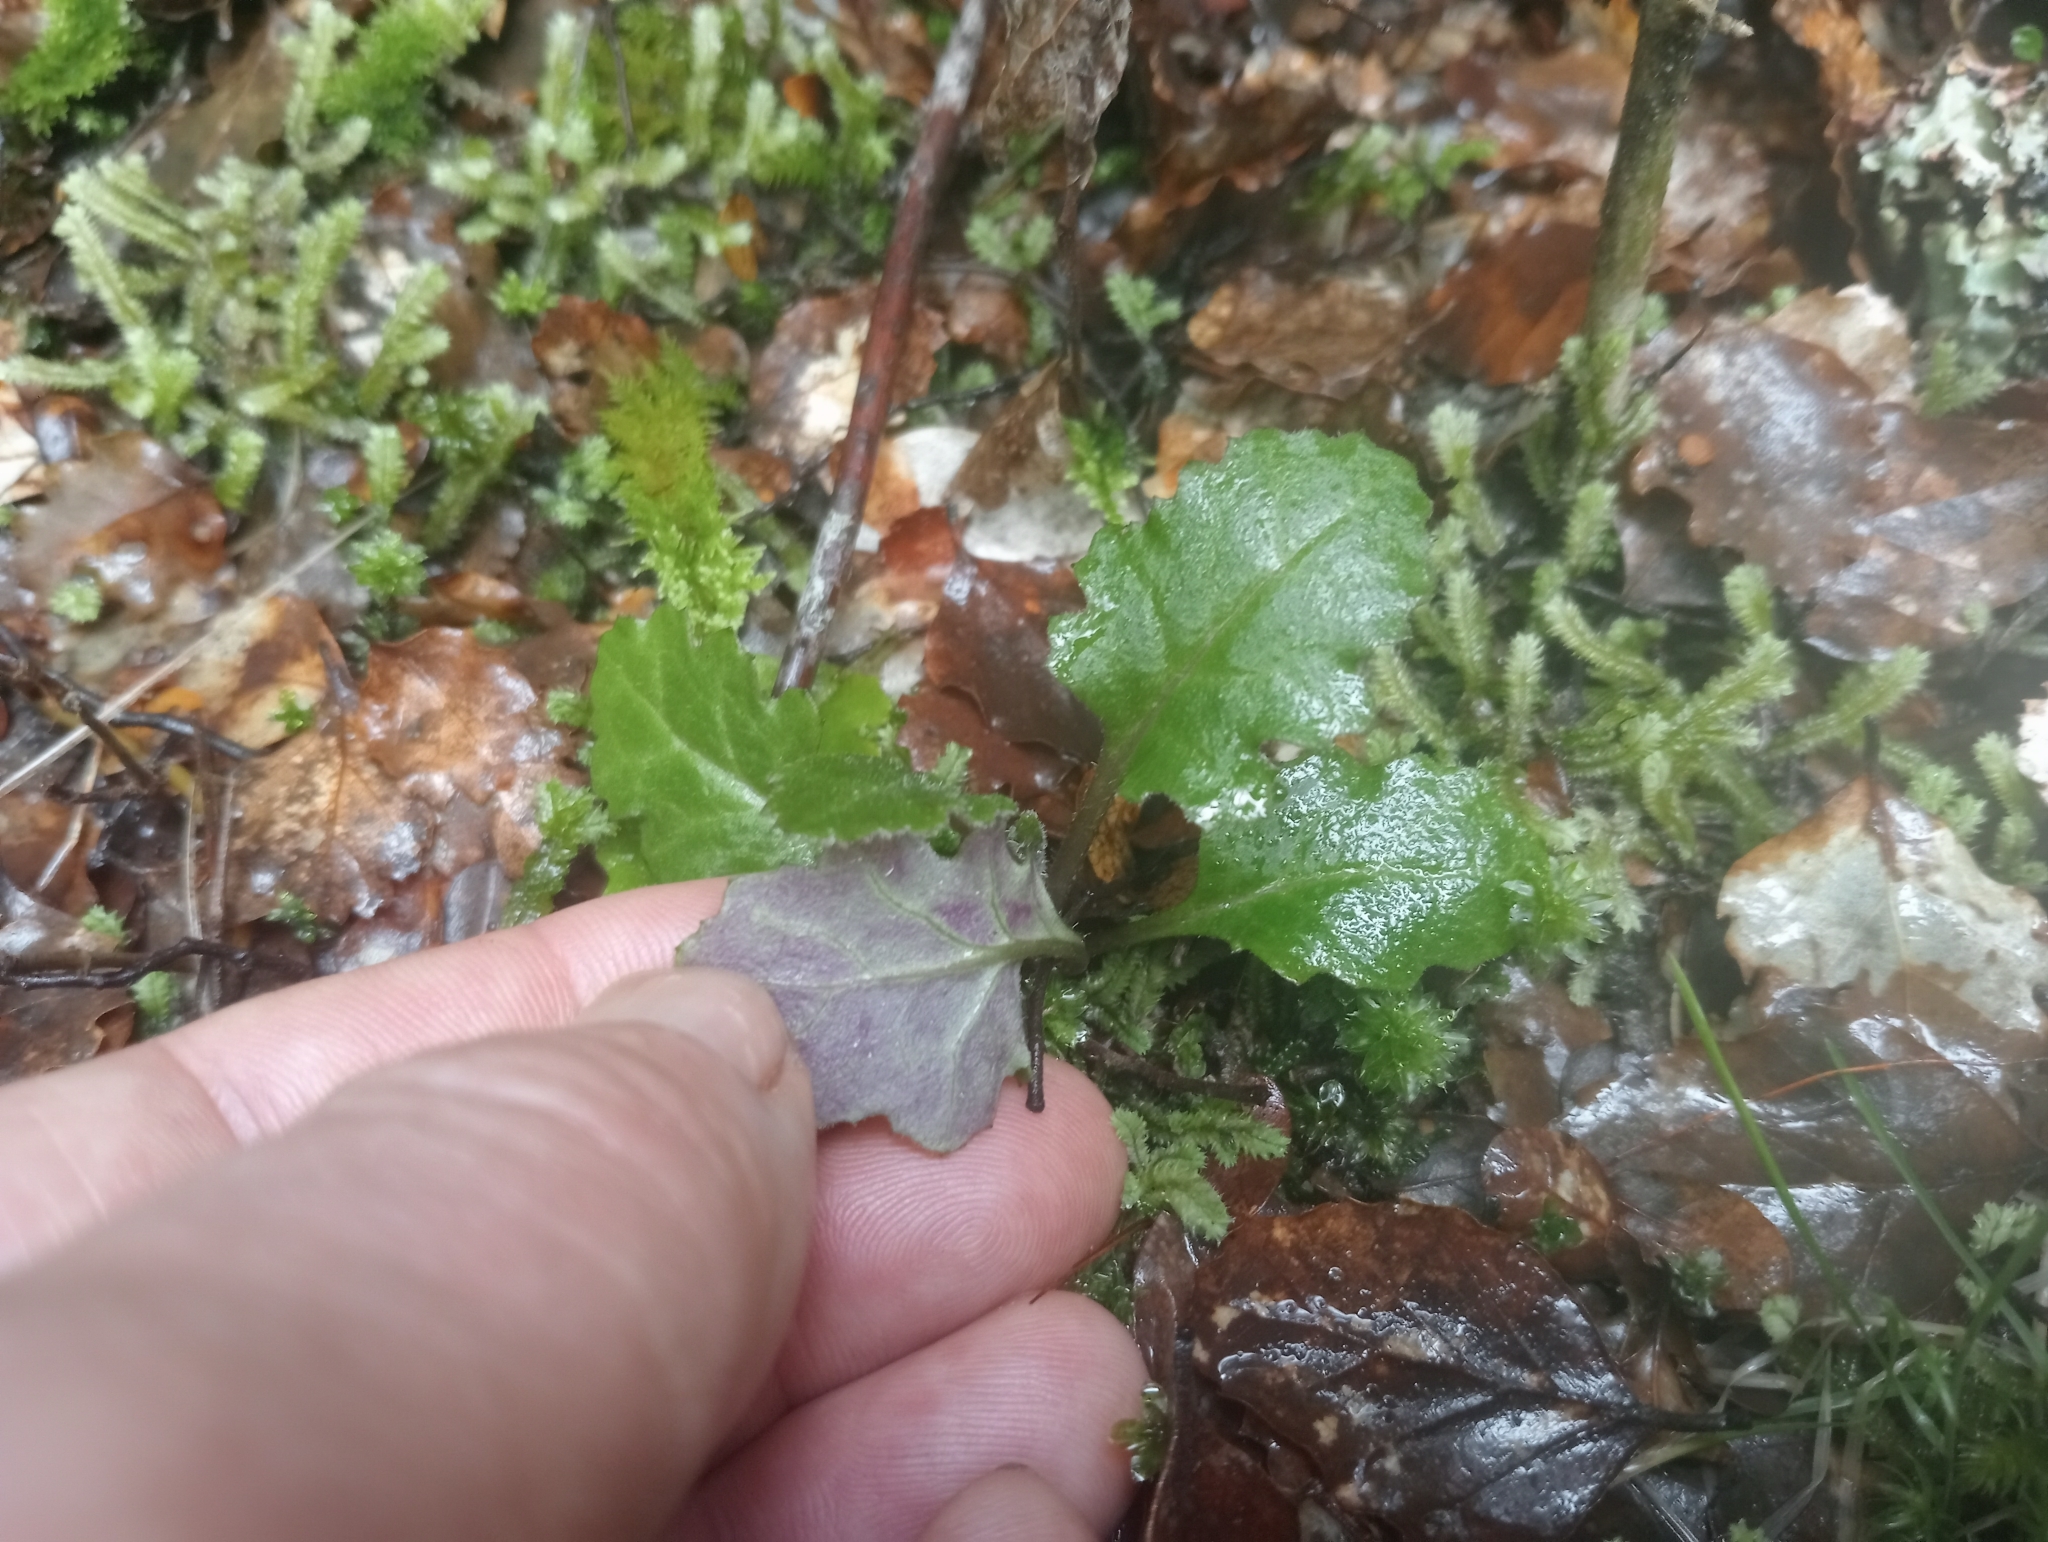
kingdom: Plantae
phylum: Tracheophyta
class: Magnoliopsida
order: Asterales
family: Asteraceae
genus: Senecio
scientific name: Senecio wairauensis
